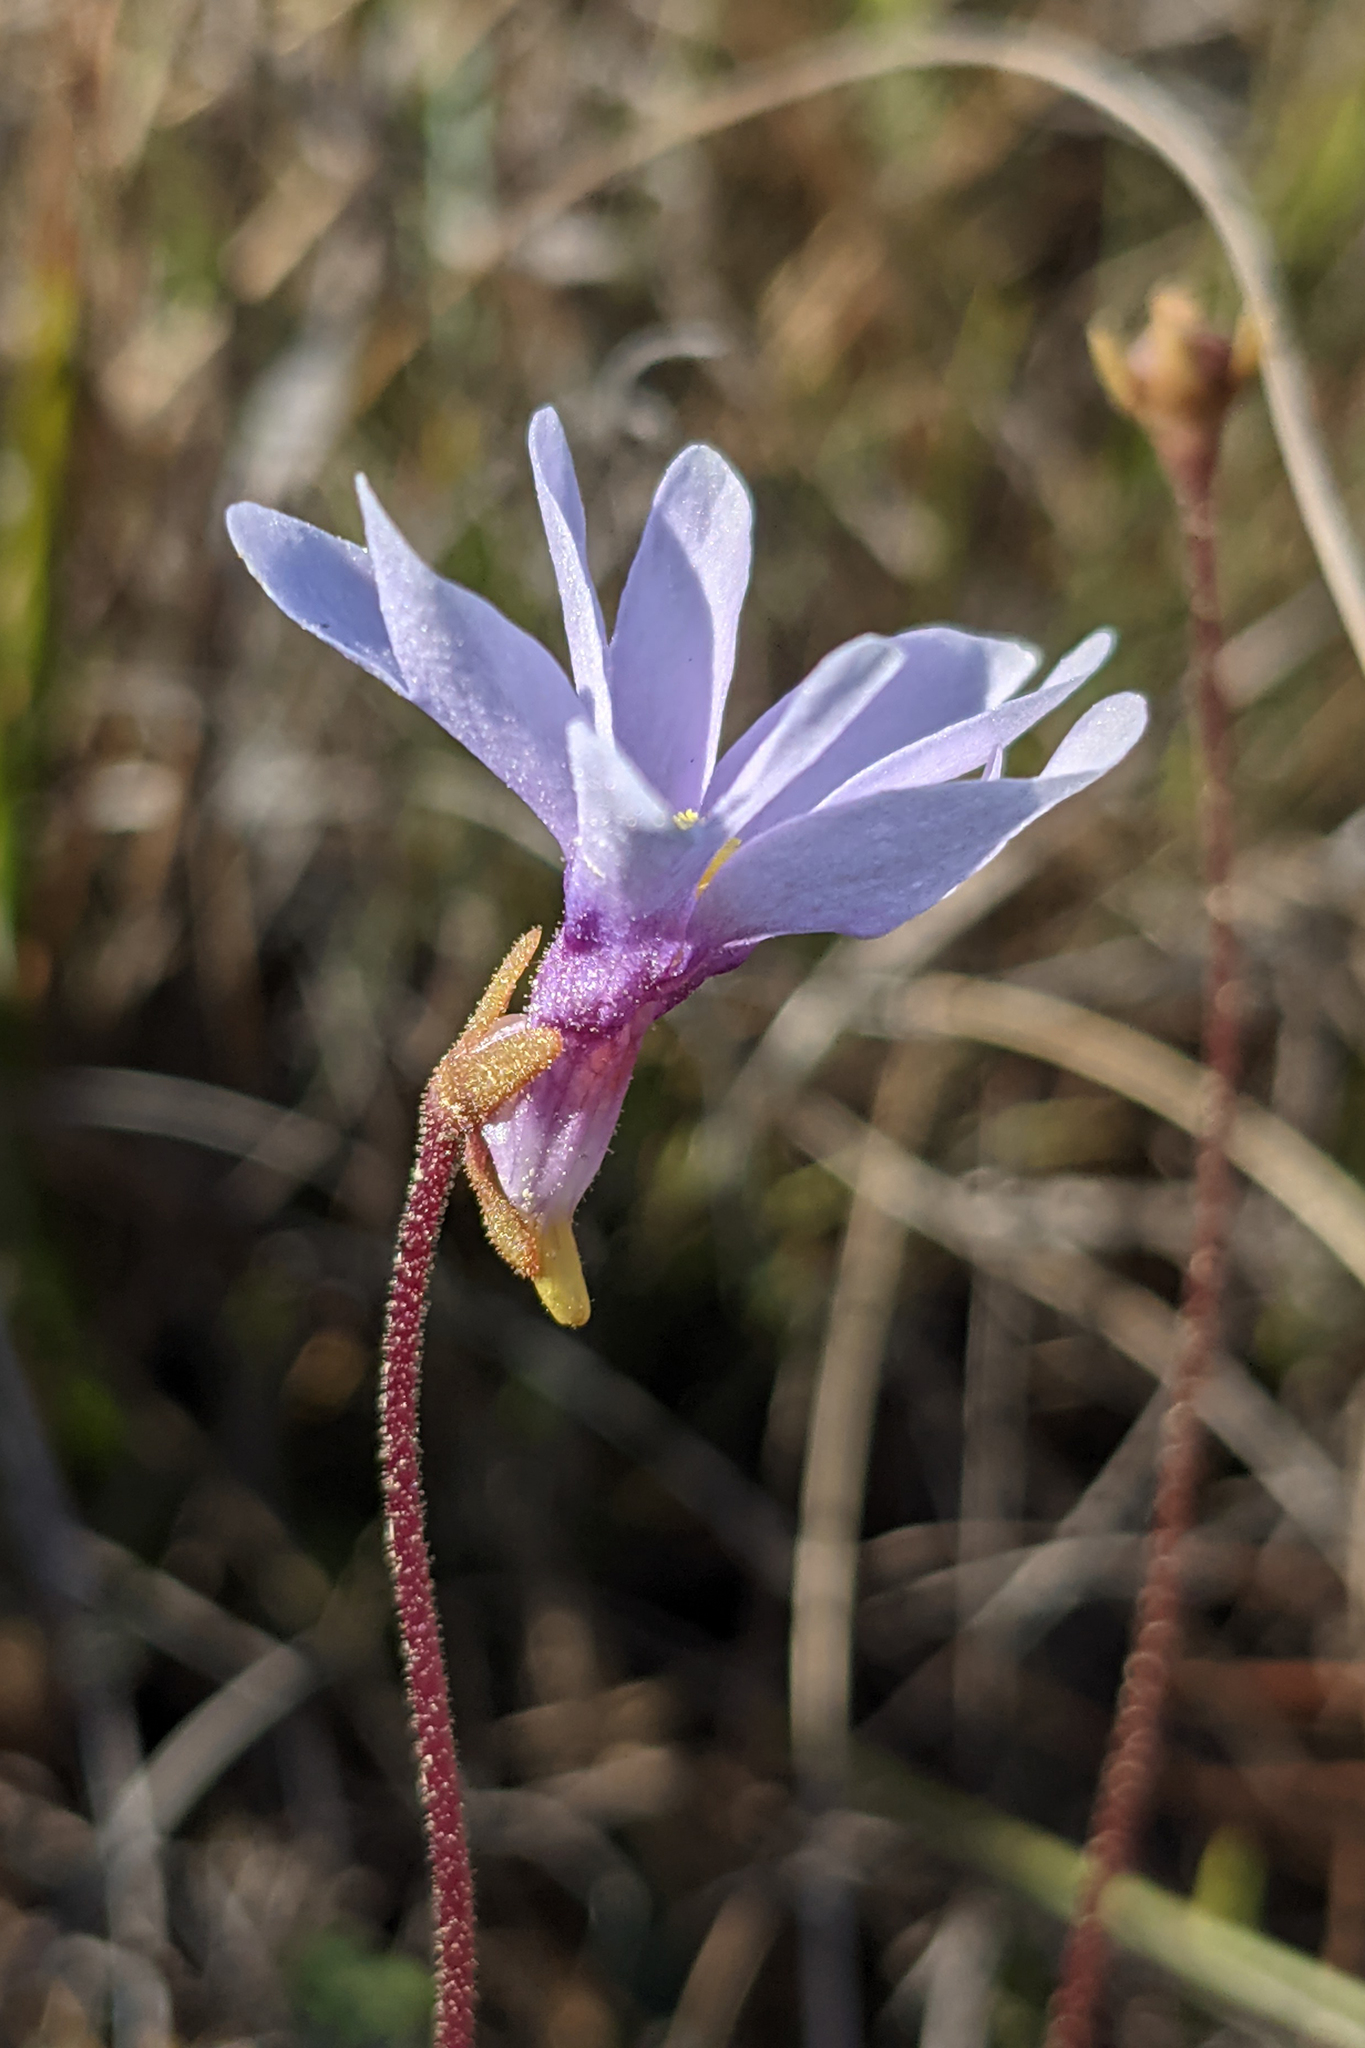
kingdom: Plantae
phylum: Tracheophyta
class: Magnoliopsida
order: Lamiales
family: Lentibulariaceae
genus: Pinguicula
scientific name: Pinguicula planifolia
